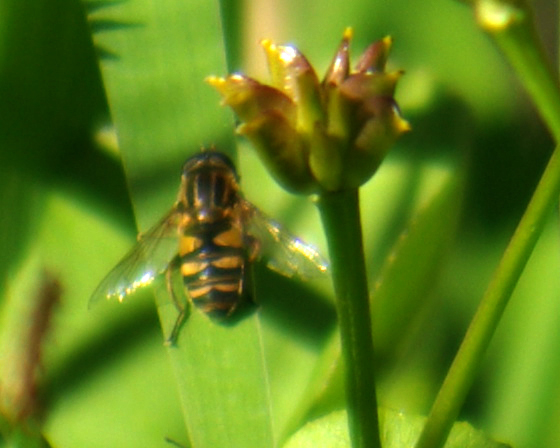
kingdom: Animalia
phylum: Arthropoda
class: Insecta
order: Diptera
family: Syrphidae
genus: Helophilus
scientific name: Helophilus fasciatus
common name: Narrow-headed marsh fly
